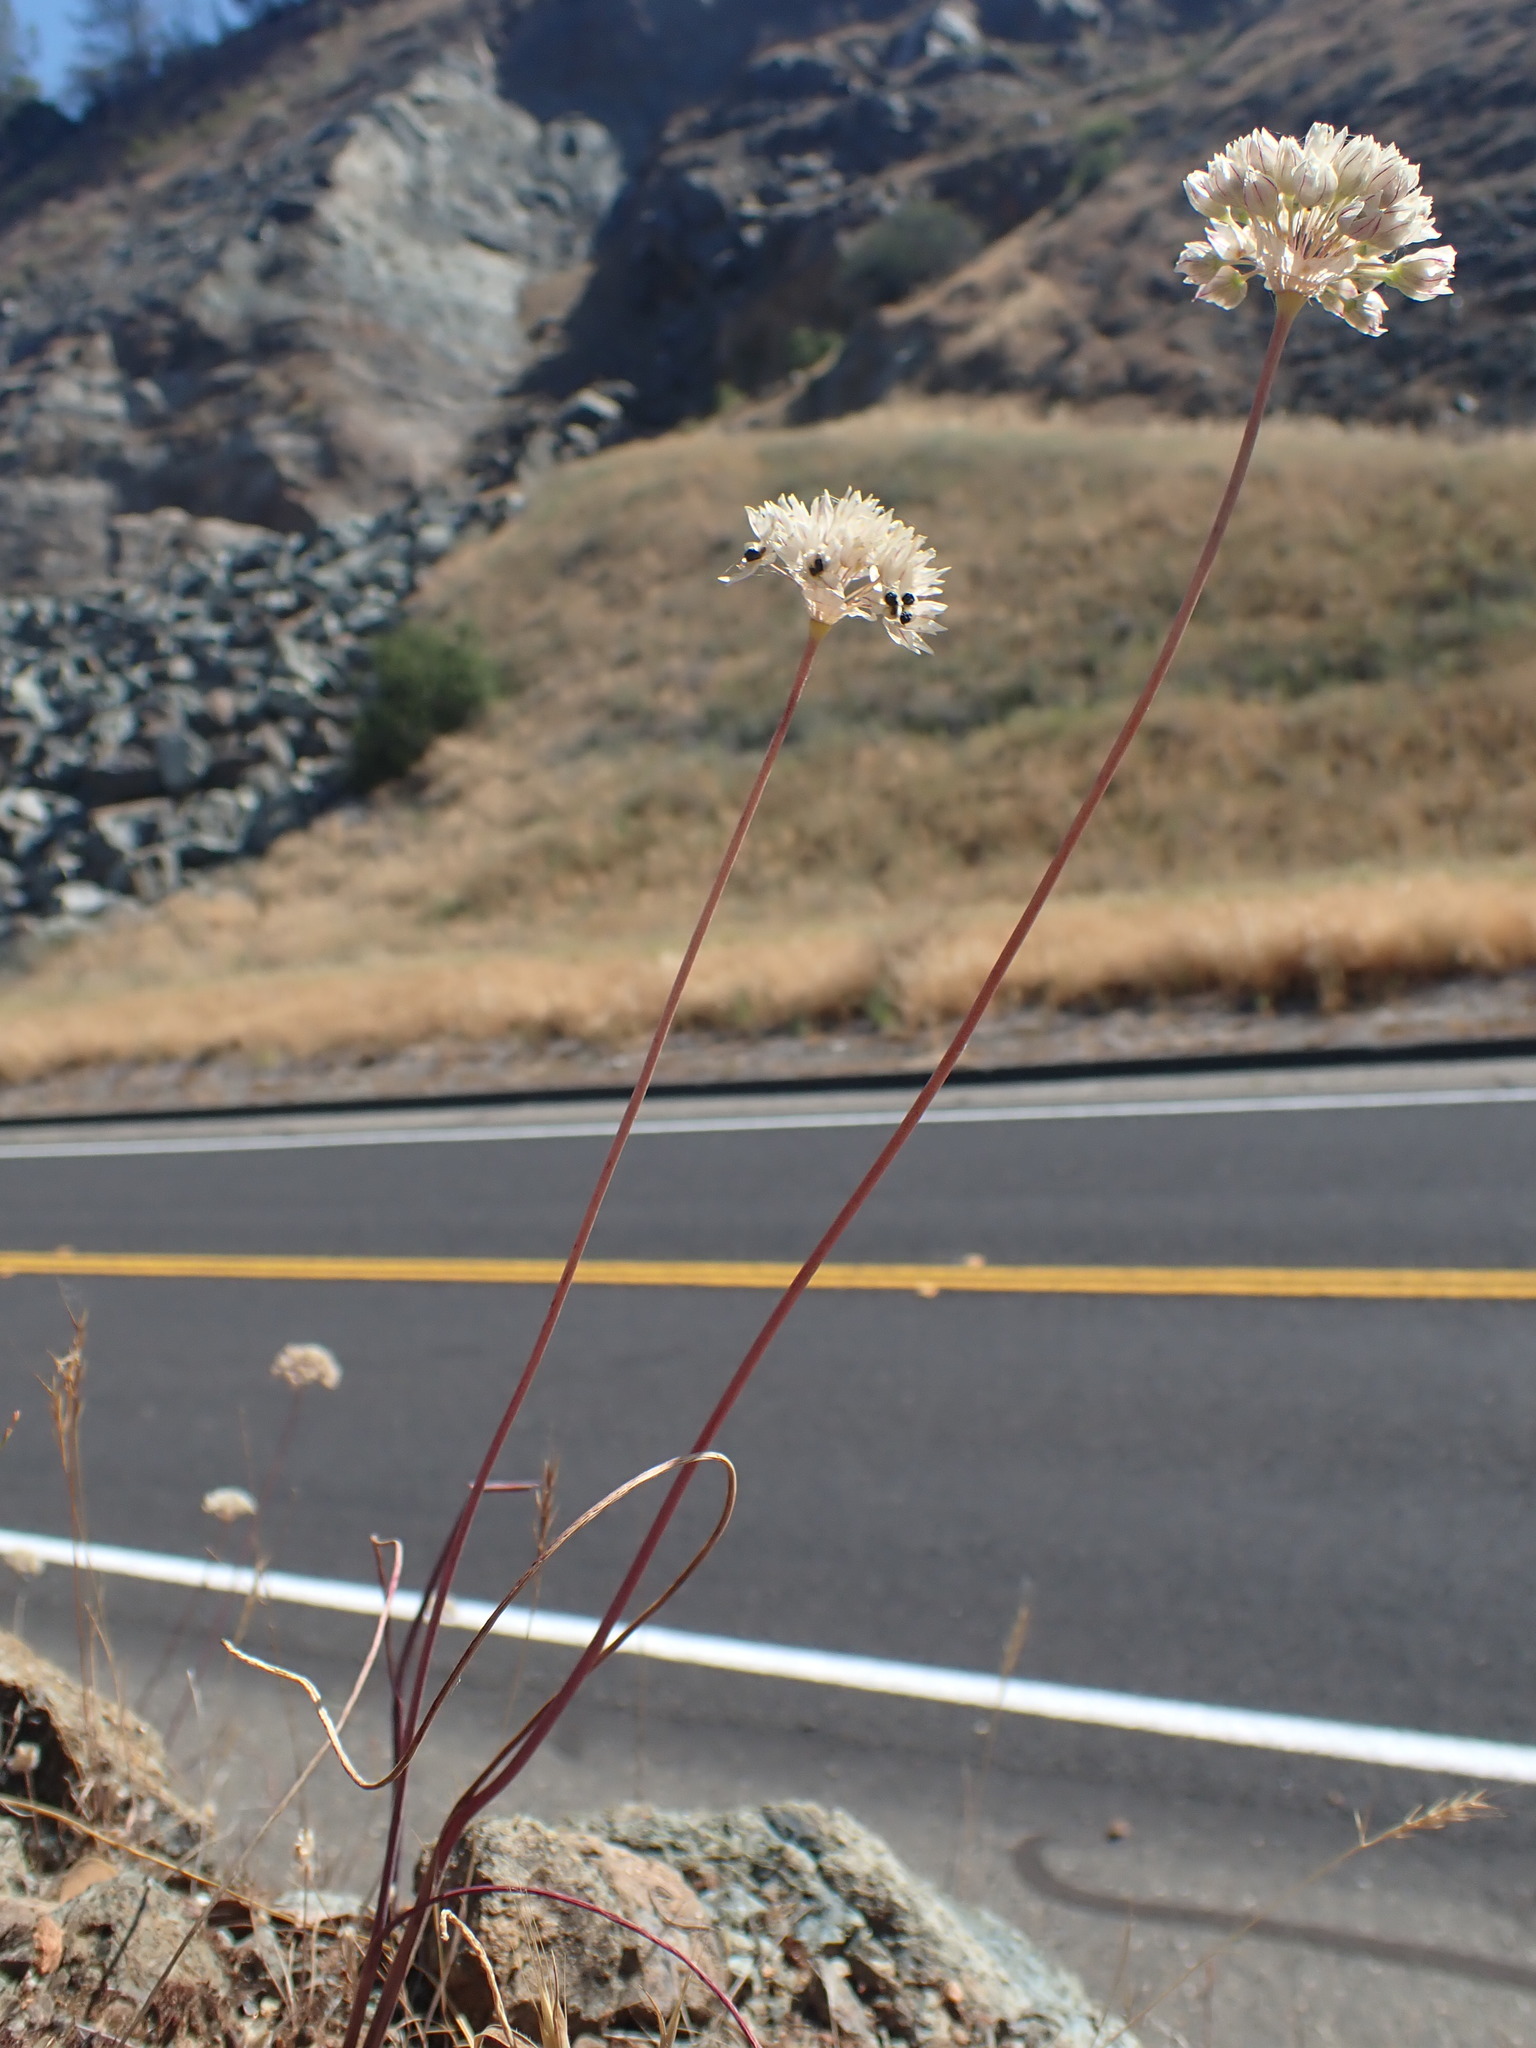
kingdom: Plantae
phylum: Tracheophyta
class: Liliopsida
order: Asparagales
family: Amaryllidaceae
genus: Allium
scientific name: Allium tuolumnense
